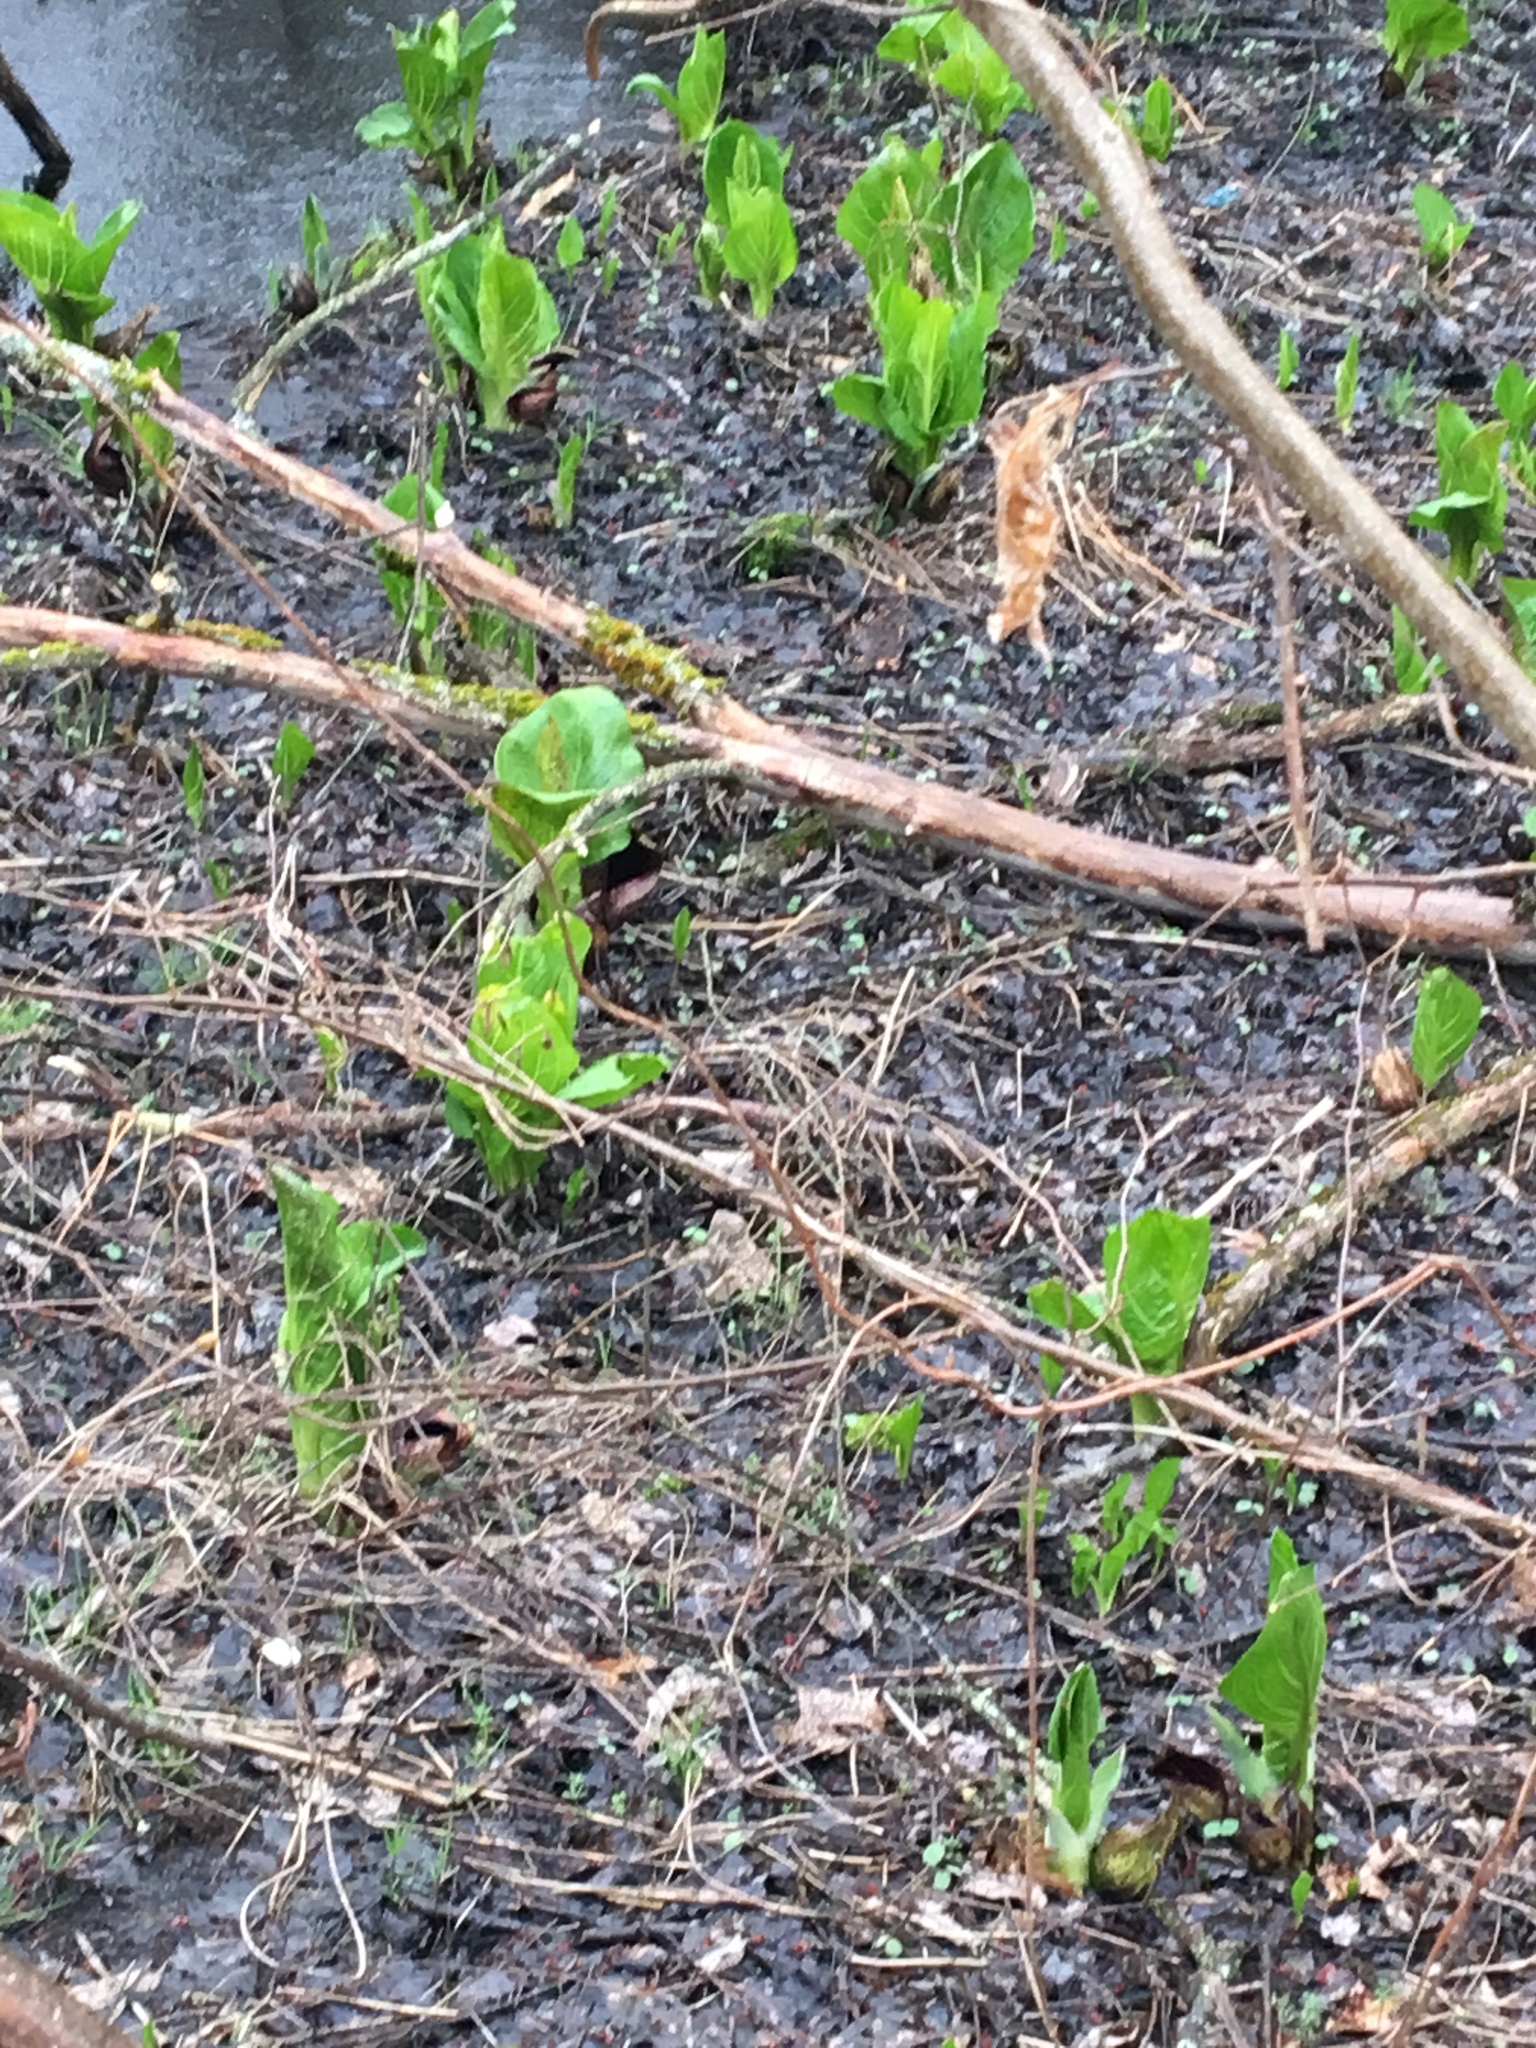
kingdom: Plantae
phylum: Tracheophyta
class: Liliopsida
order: Alismatales
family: Araceae
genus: Symplocarpus
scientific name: Symplocarpus foetidus
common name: Eastern skunk cabbage
